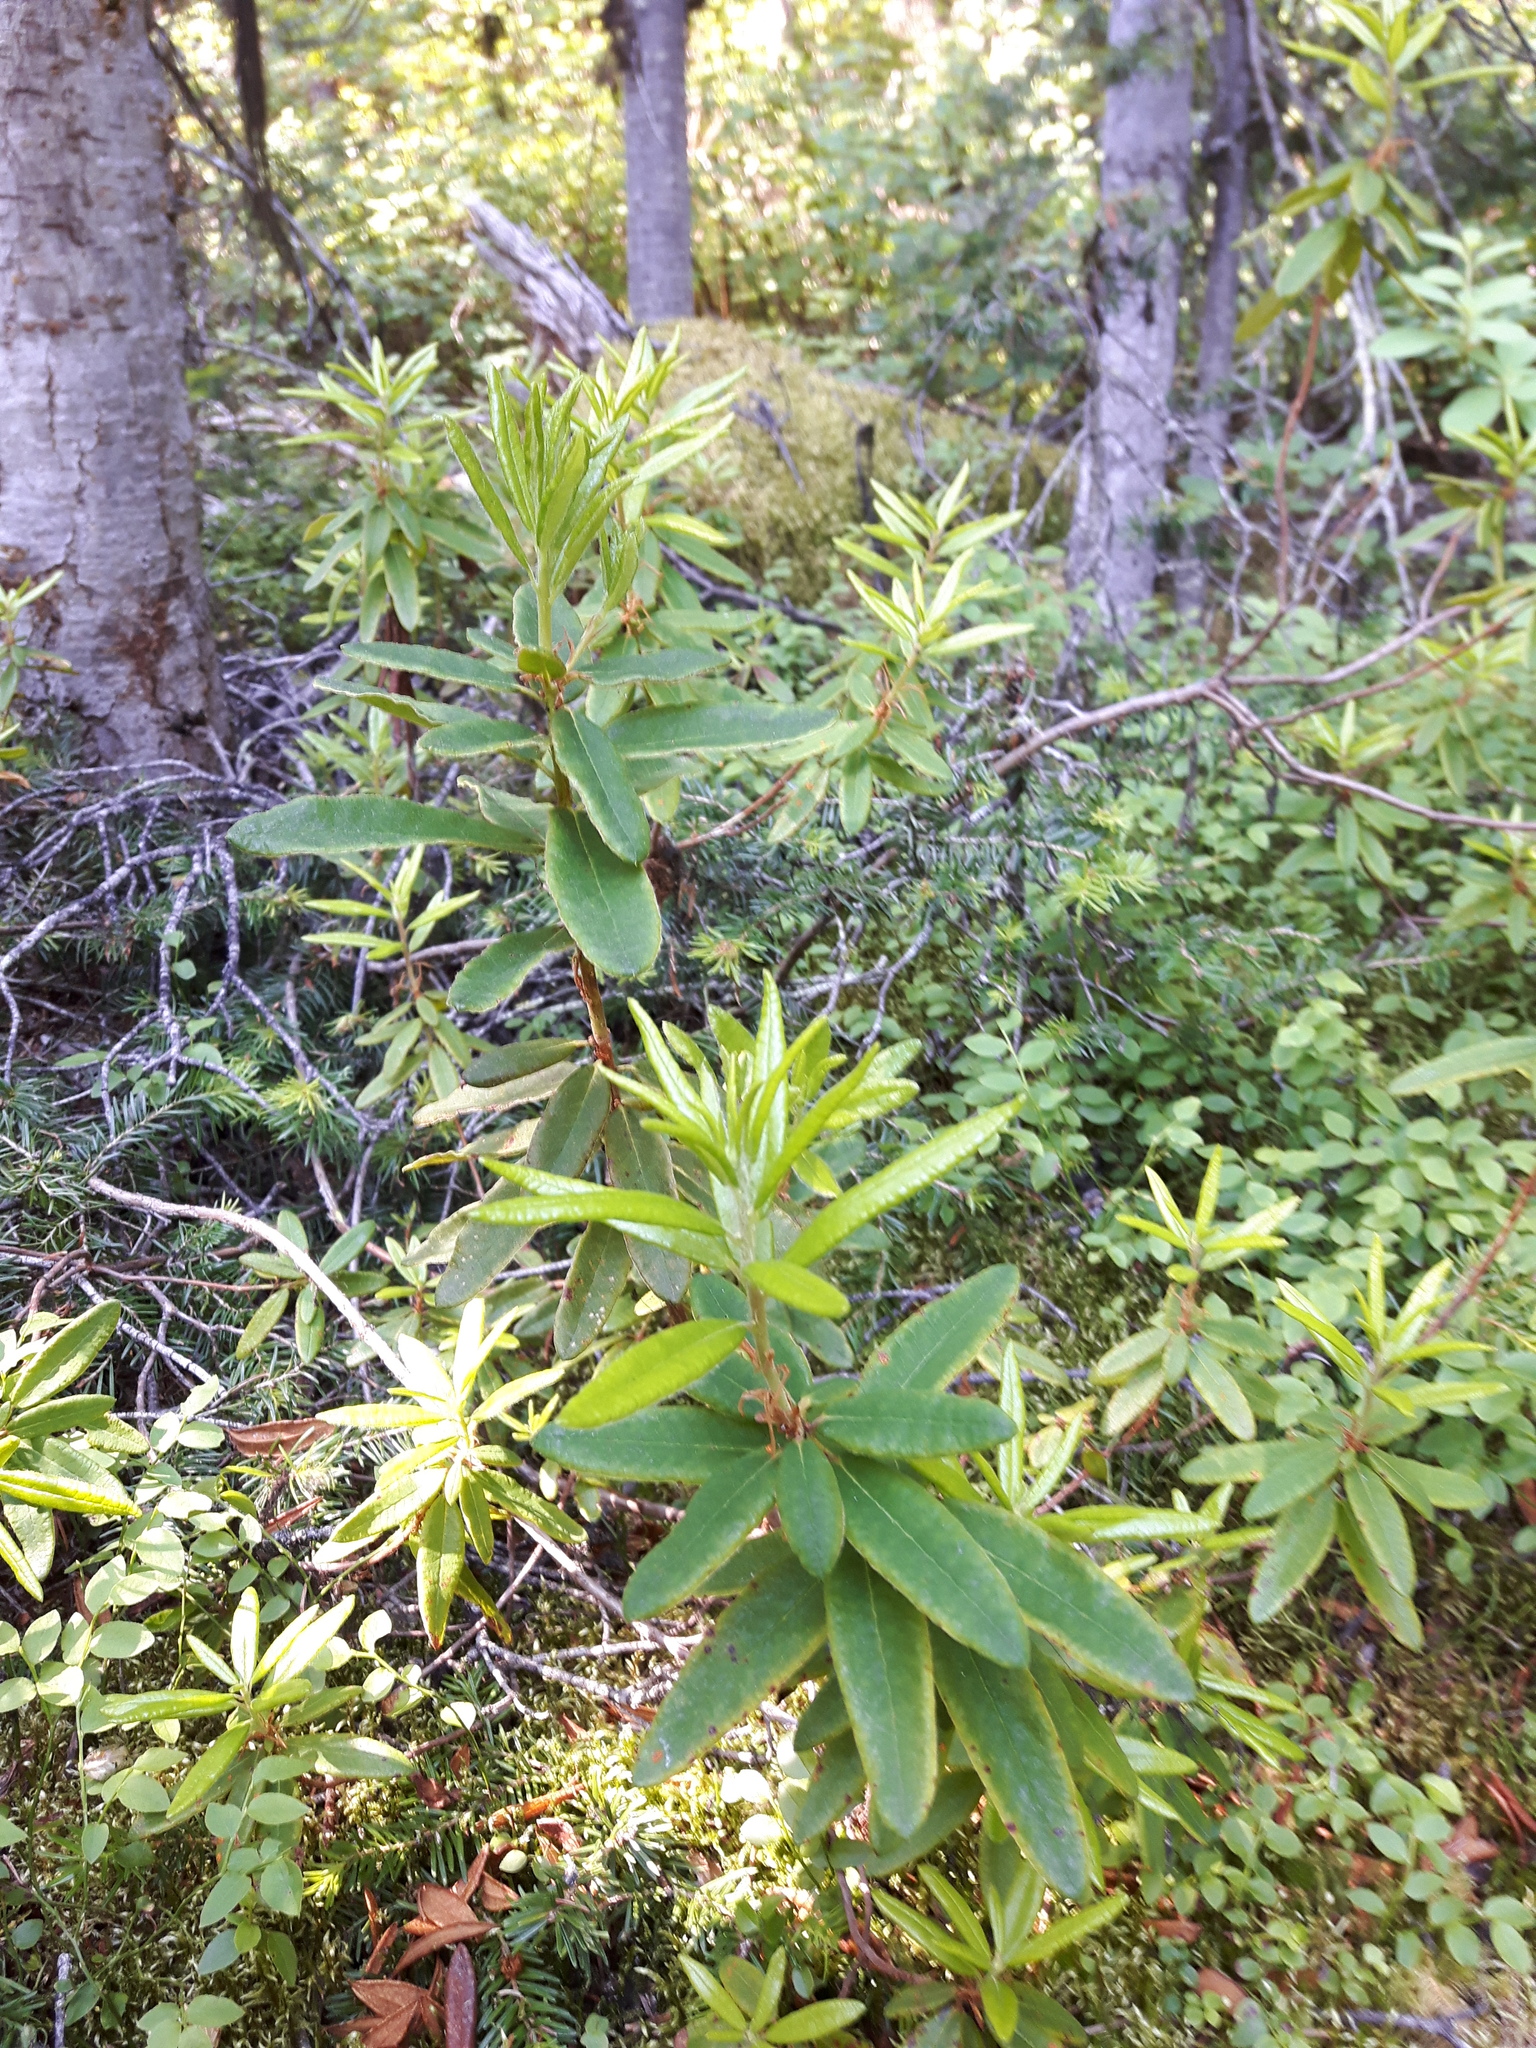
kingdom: Plantae
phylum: Tracheophyta
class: Magnoliopsida
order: Ericales
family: Ericaceae
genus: Rhododendron
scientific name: Rhododendron columbianum
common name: Western labrador tea
